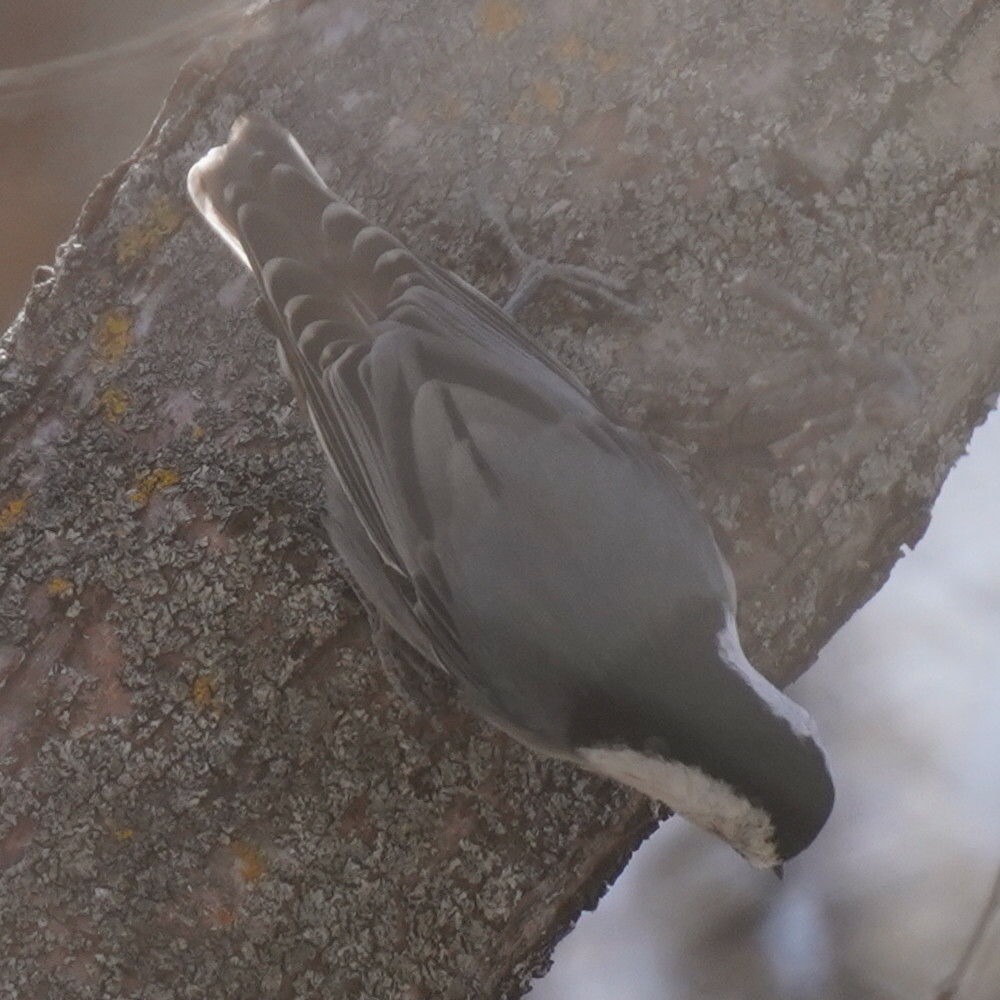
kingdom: Animalia
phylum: Chordata
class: Aves
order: Passeriformes
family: Sittidae
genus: Sitta
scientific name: Sitta carolinensis
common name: White-breasted nuthatch
